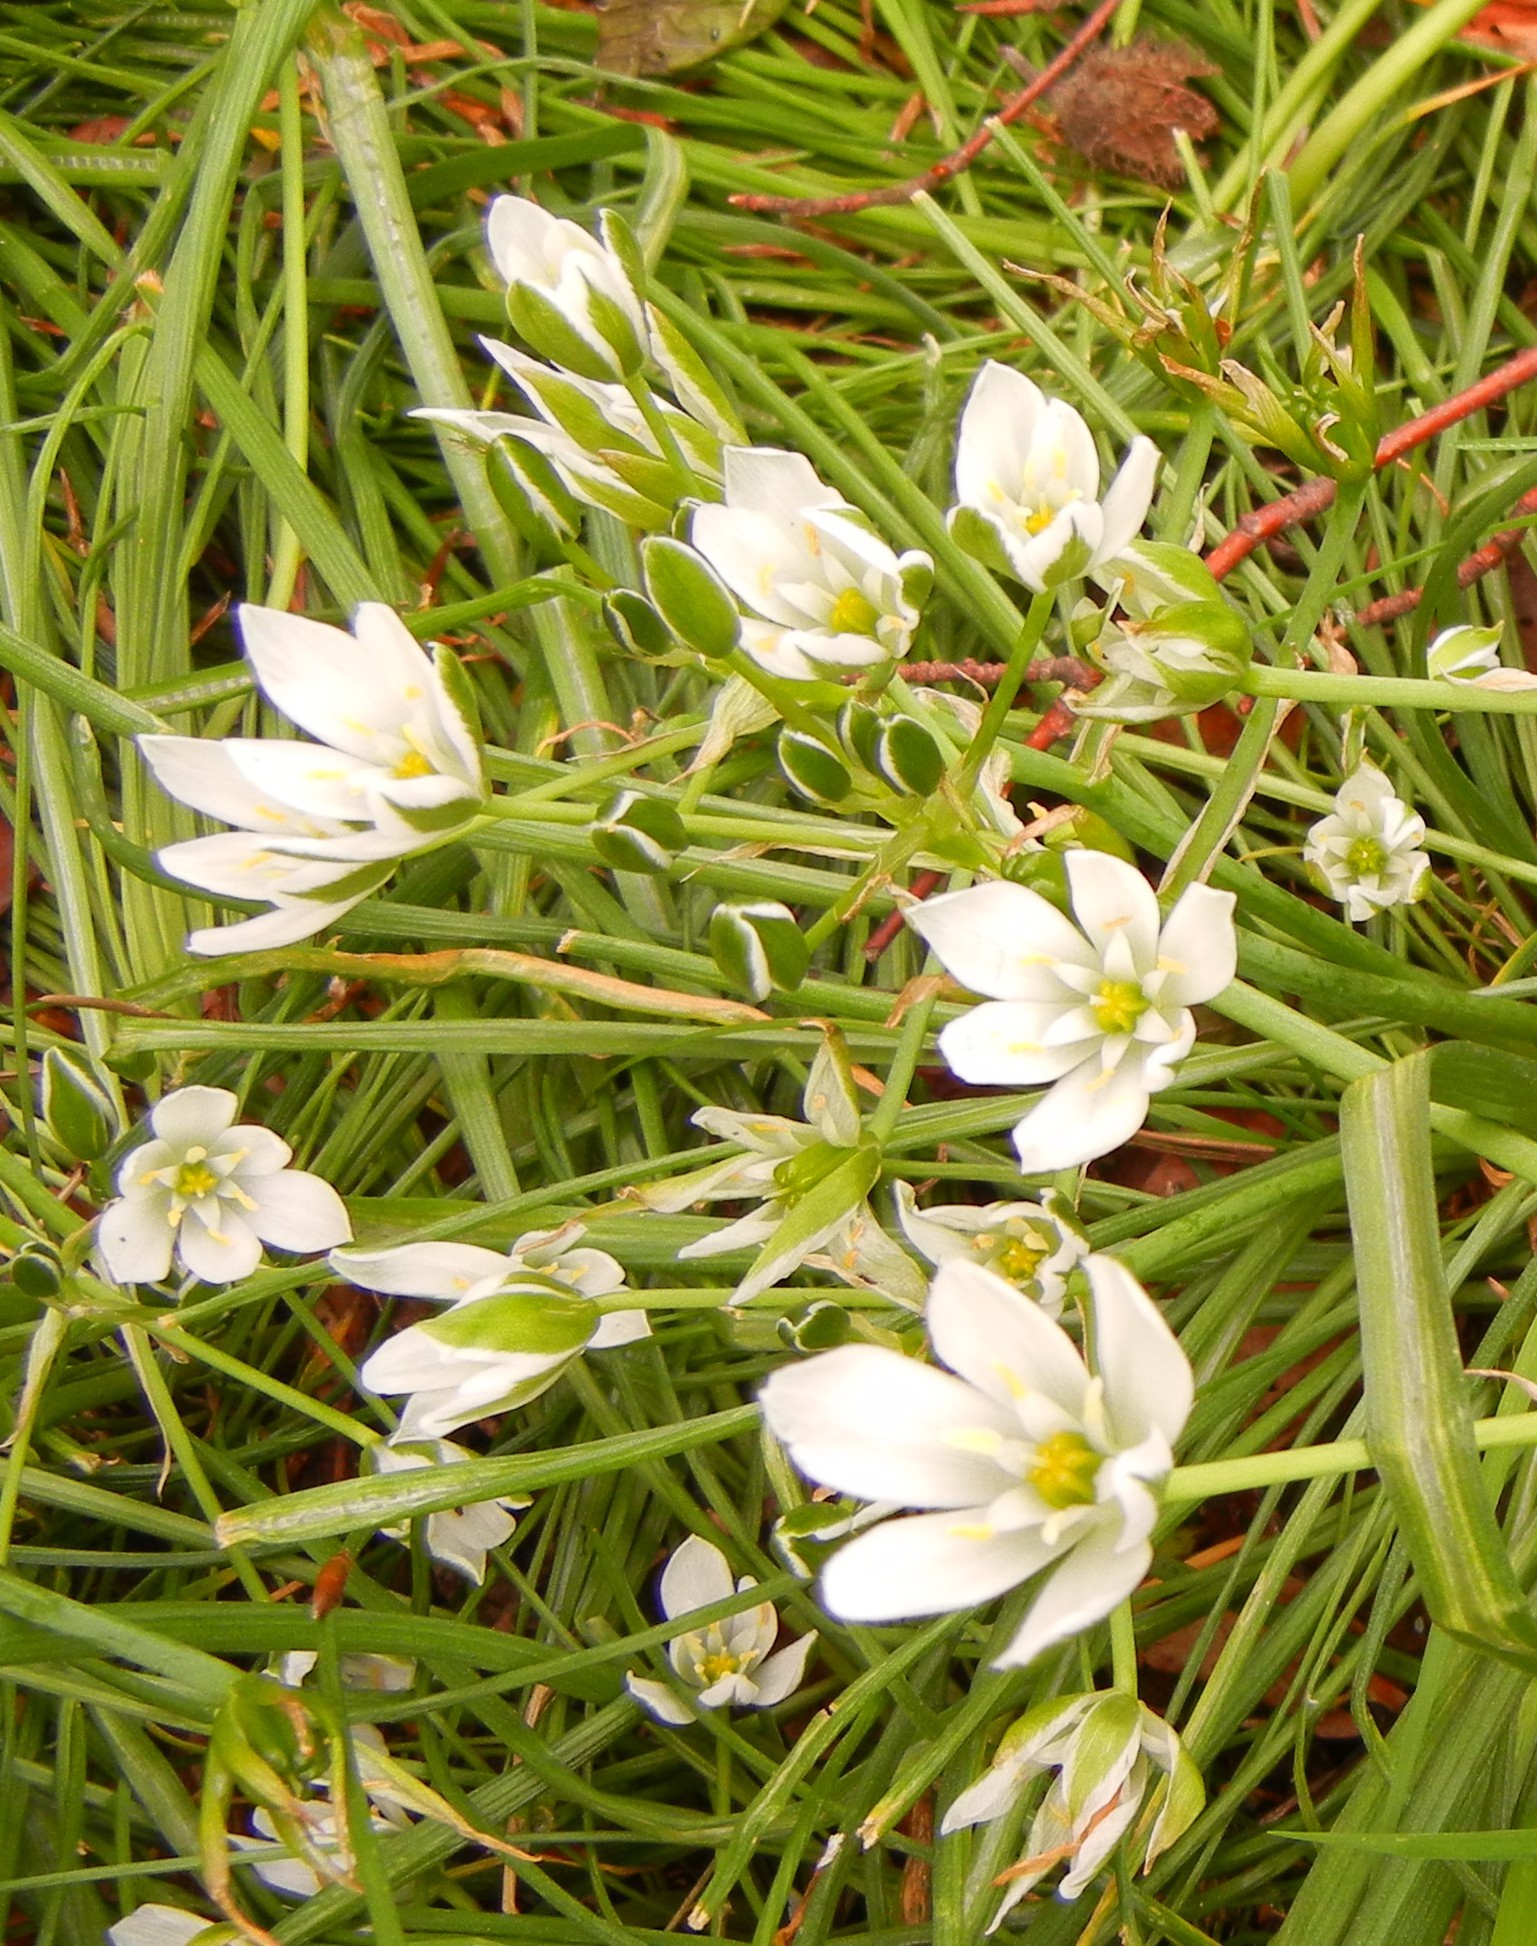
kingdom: Plantae
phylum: Tracheophyta
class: Liliopsida
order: Asparagales
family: Asparagaceae
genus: Ornithogalum
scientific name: Ornithogalum umbellatum
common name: Garden star-of-bethlehem
